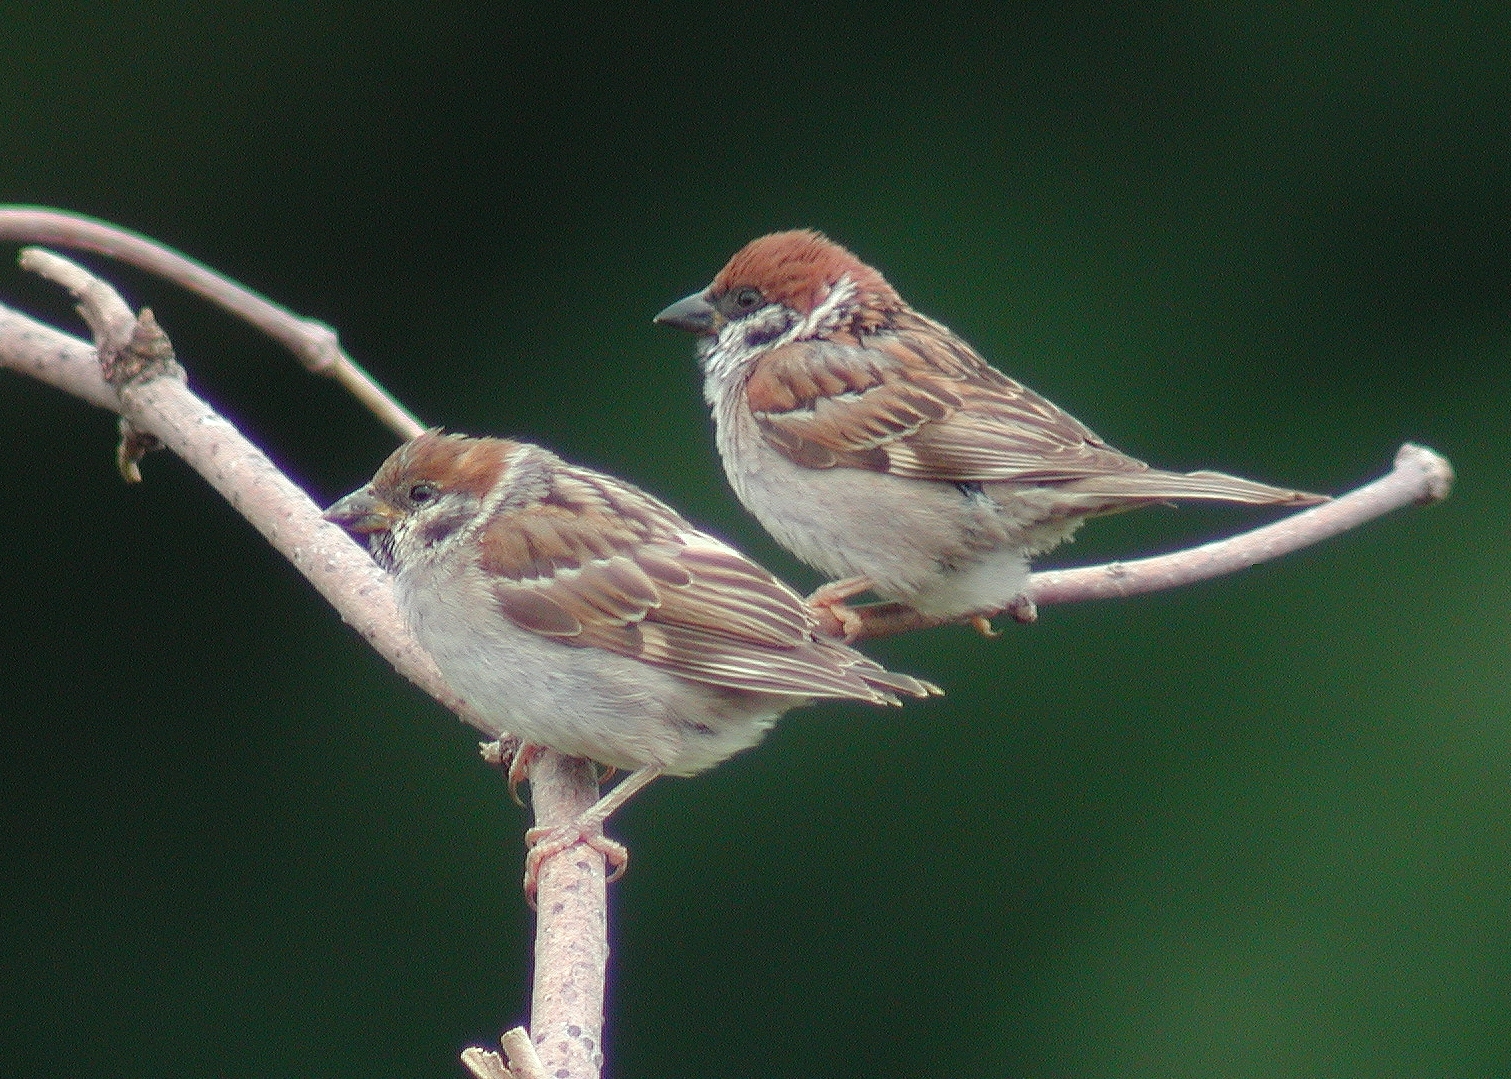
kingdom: Animalia
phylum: Chordata
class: Aves
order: Passeriformes
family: Passeridae
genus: Passer
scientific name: Passer montanus
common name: Eurasian tree sparrow
